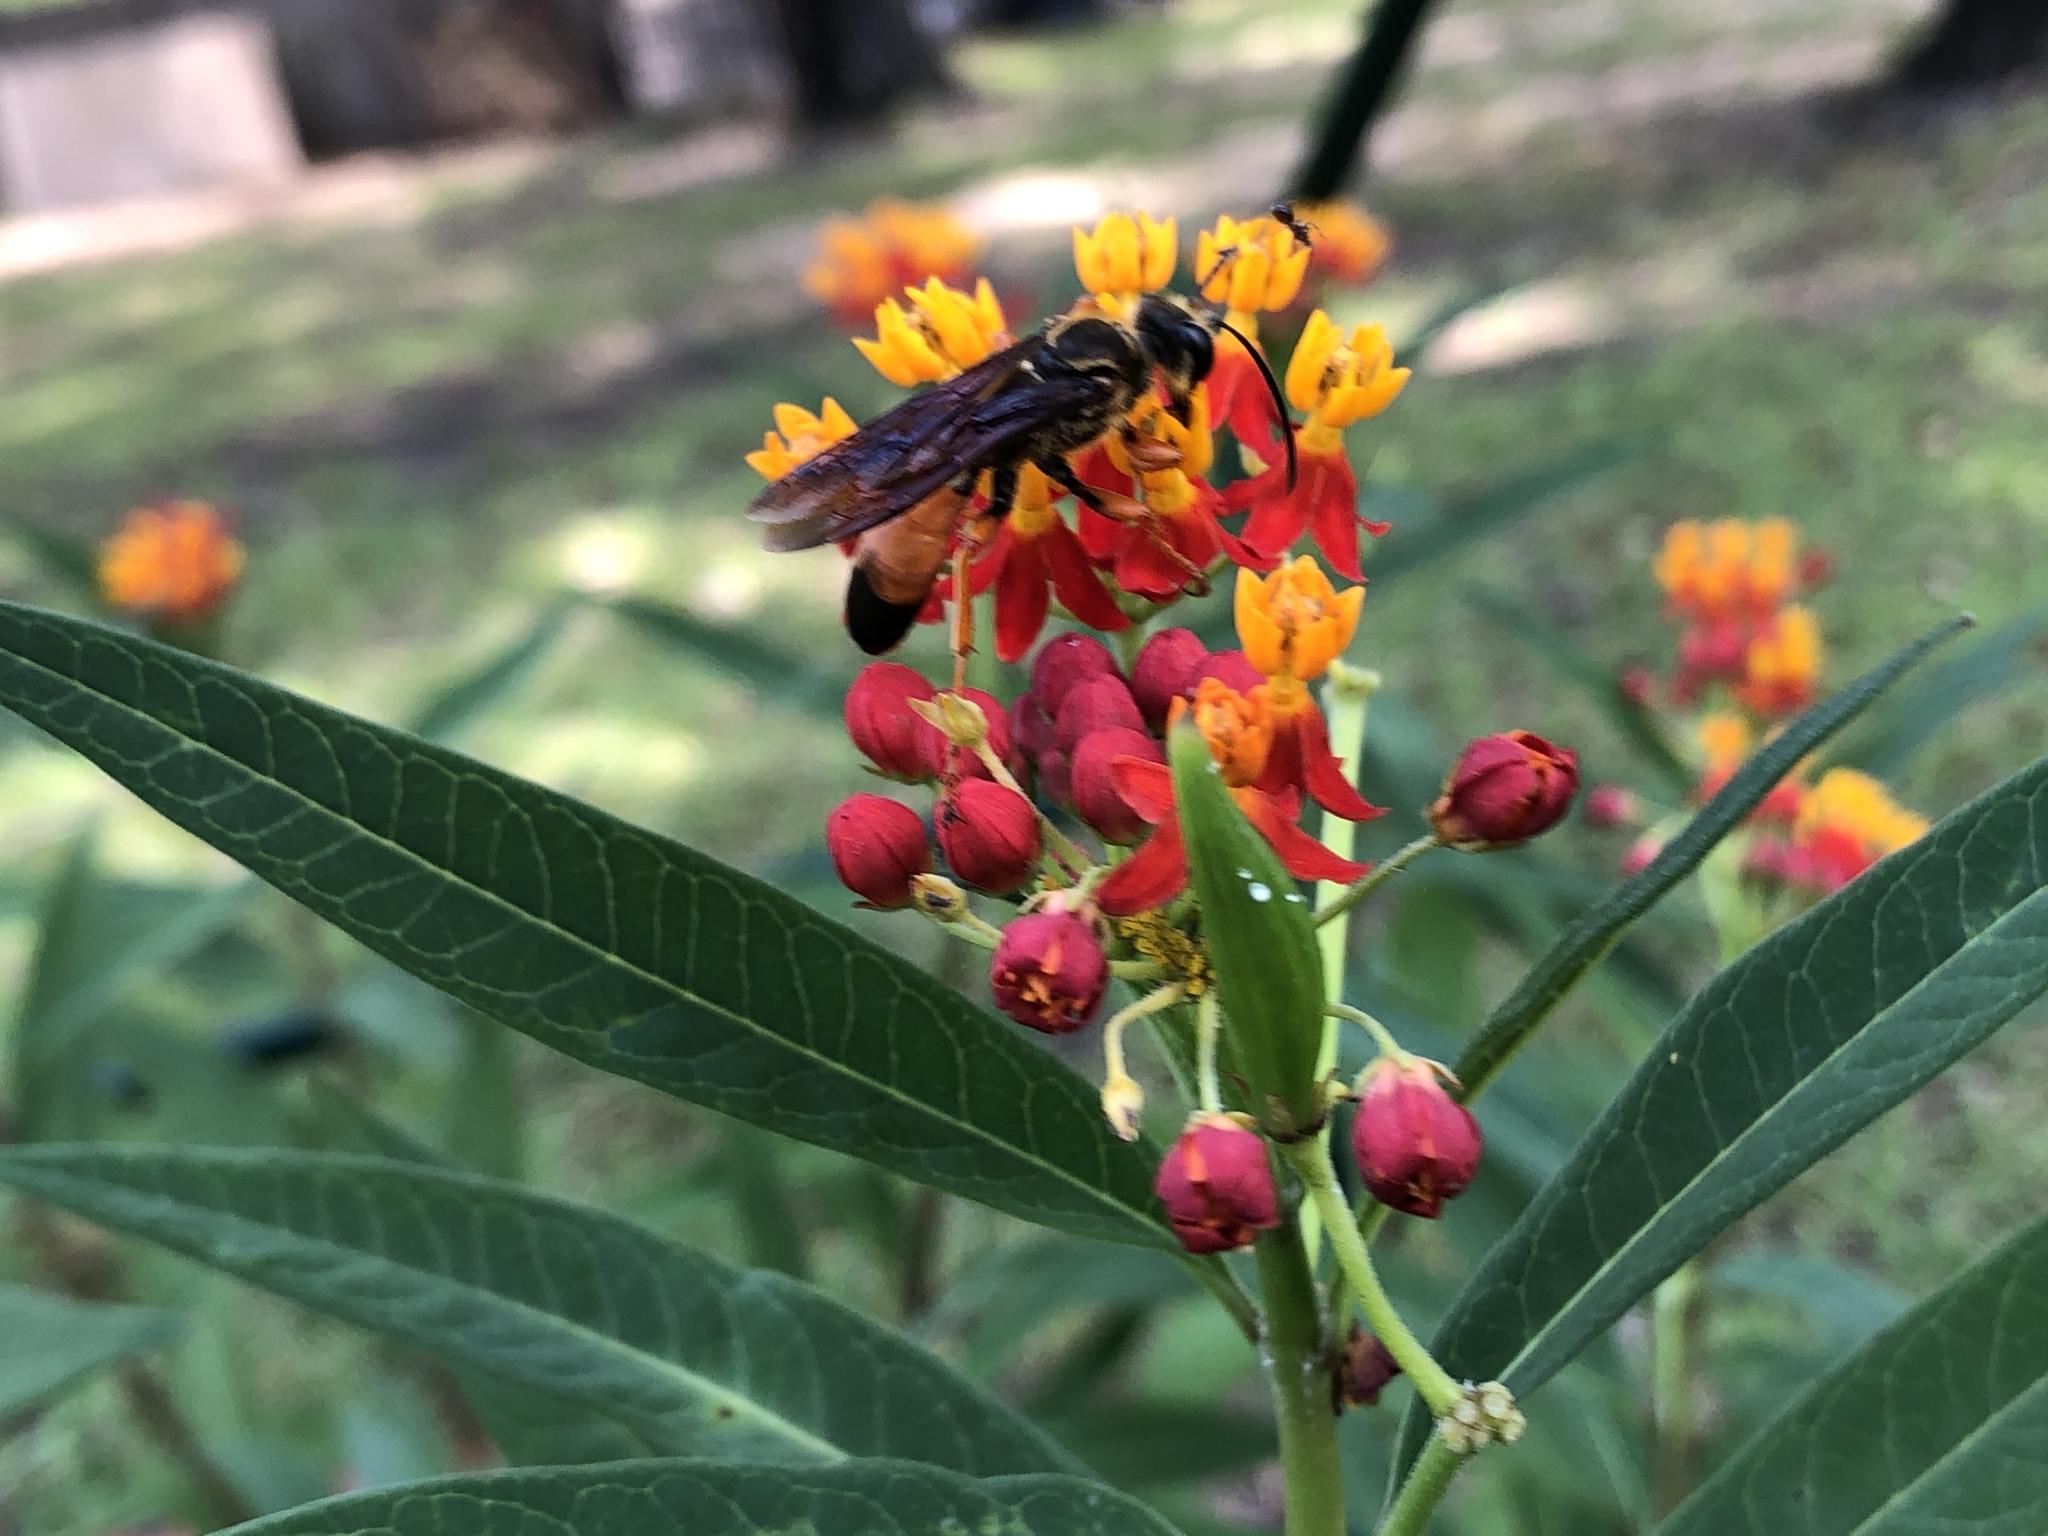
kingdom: Animalia
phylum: Arthropoda
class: Insecta
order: Hymenoptera
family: Sphecidae
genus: Sphex
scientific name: Sphex dorsalis
